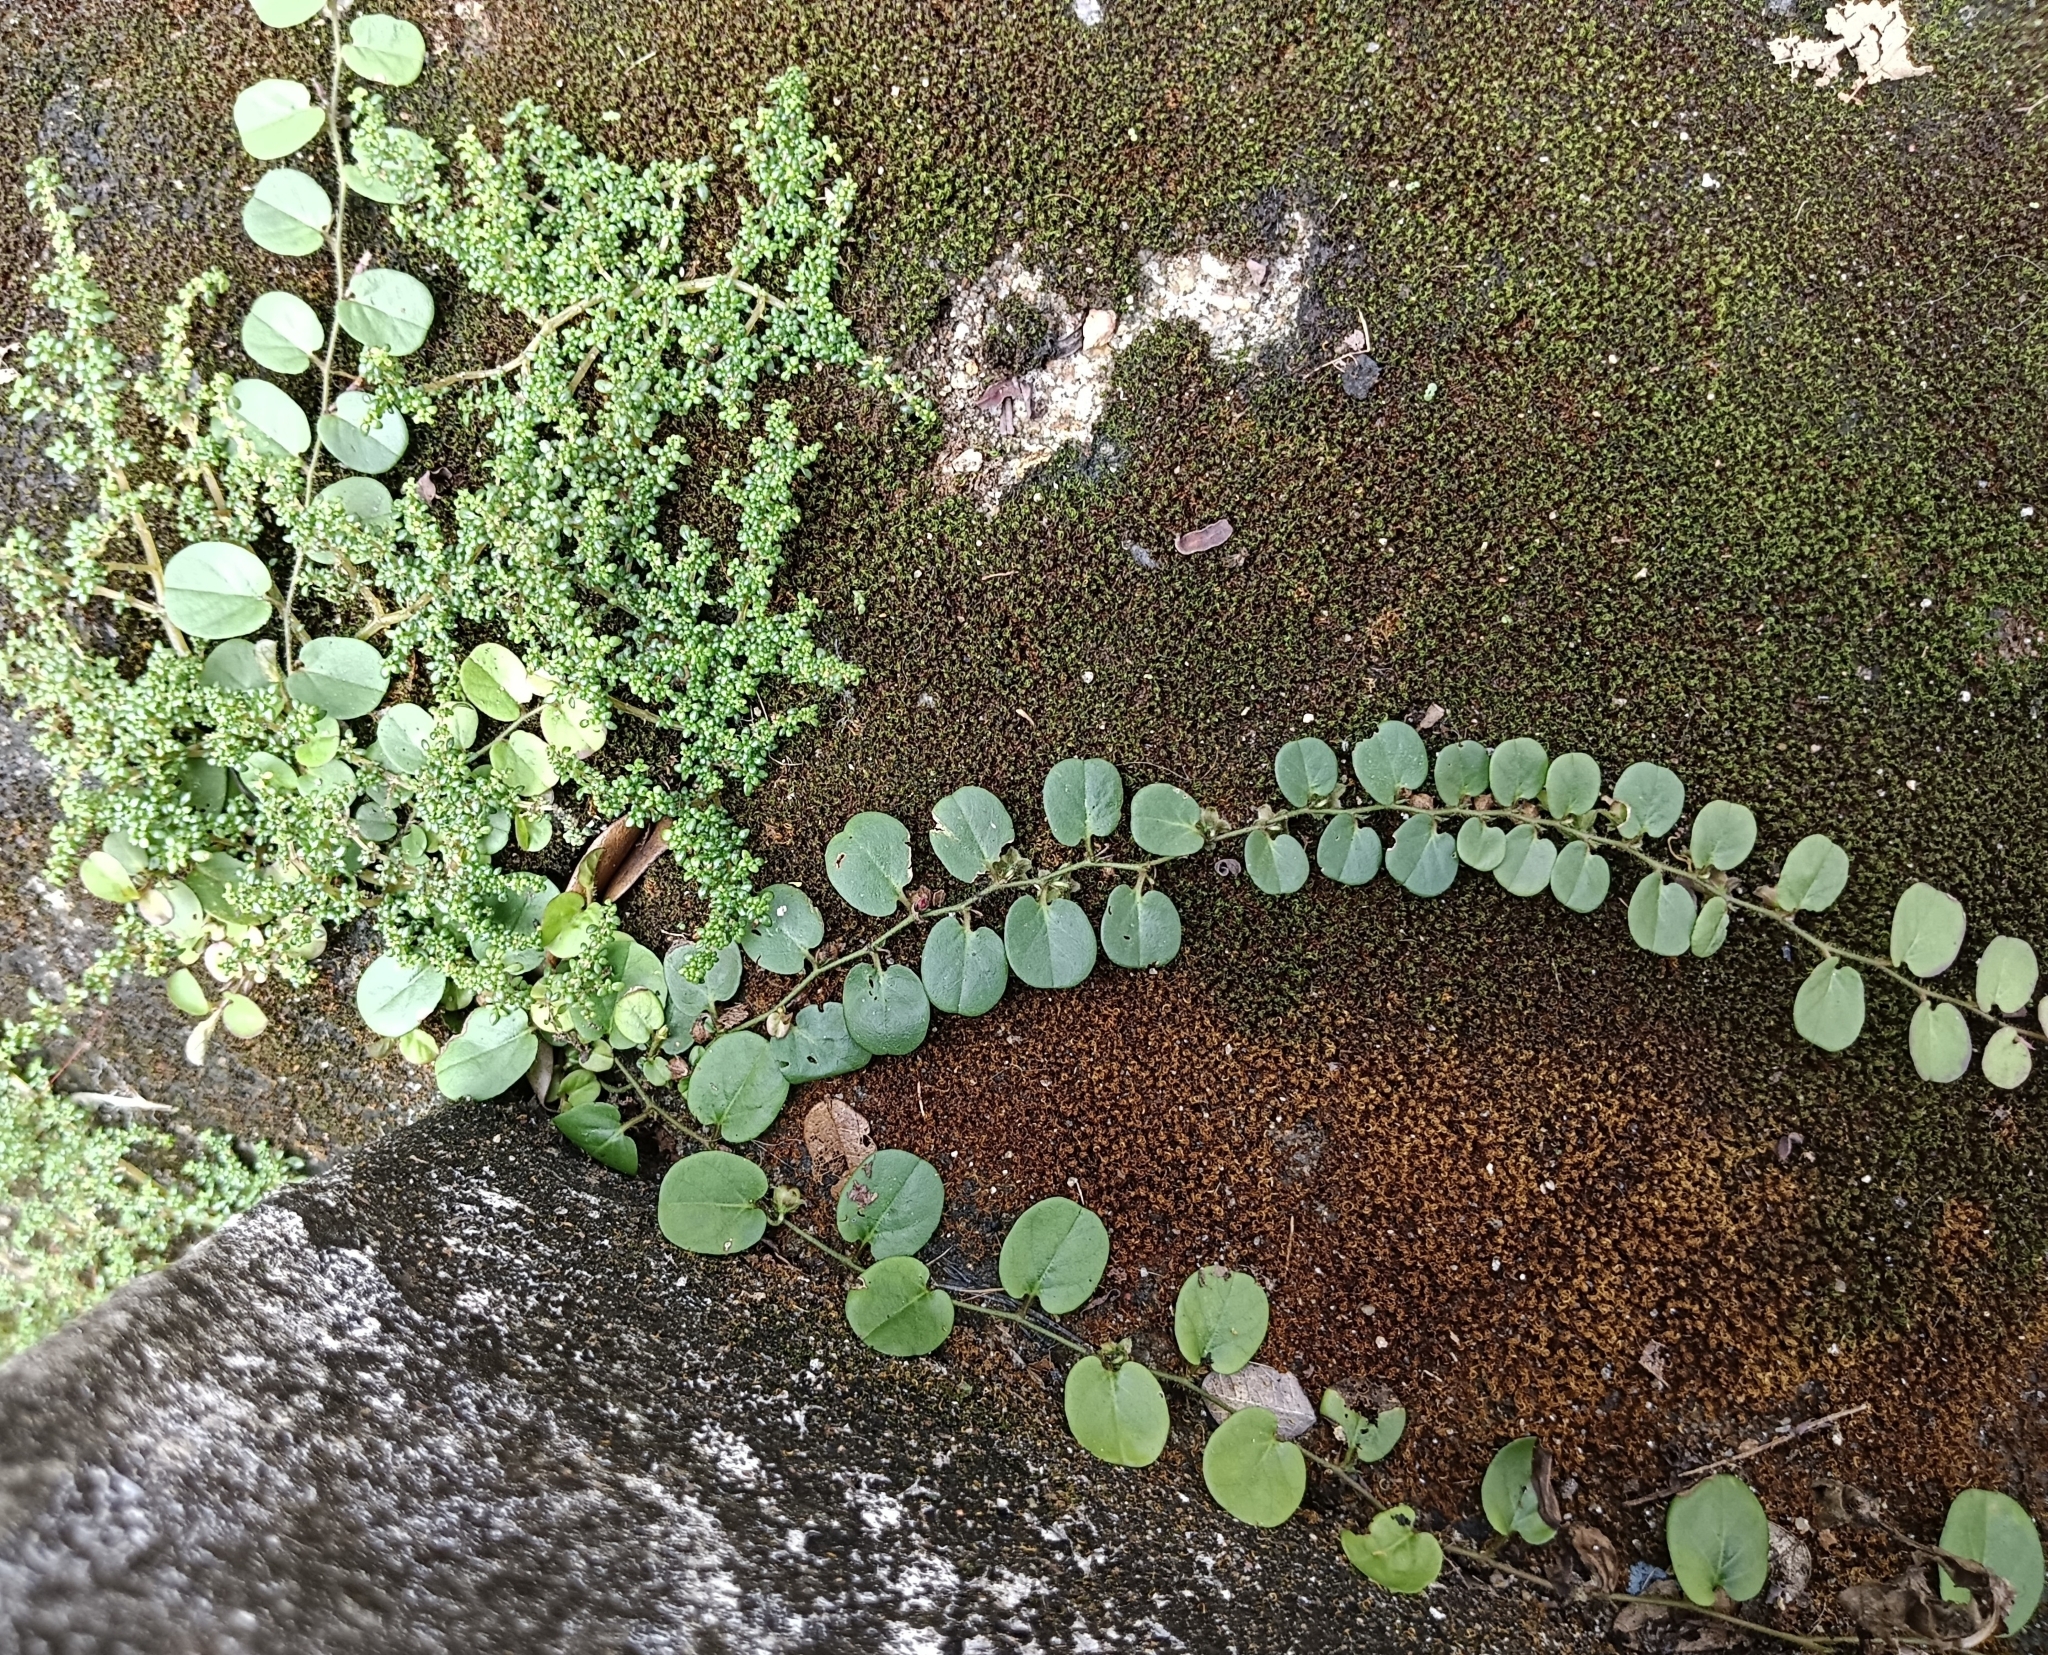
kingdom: Plantae
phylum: Tracheophyta
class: Magnoliopsida
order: Solanales
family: Convolvulaceae
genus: Evolvulus
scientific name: Evolvulus nummularius
